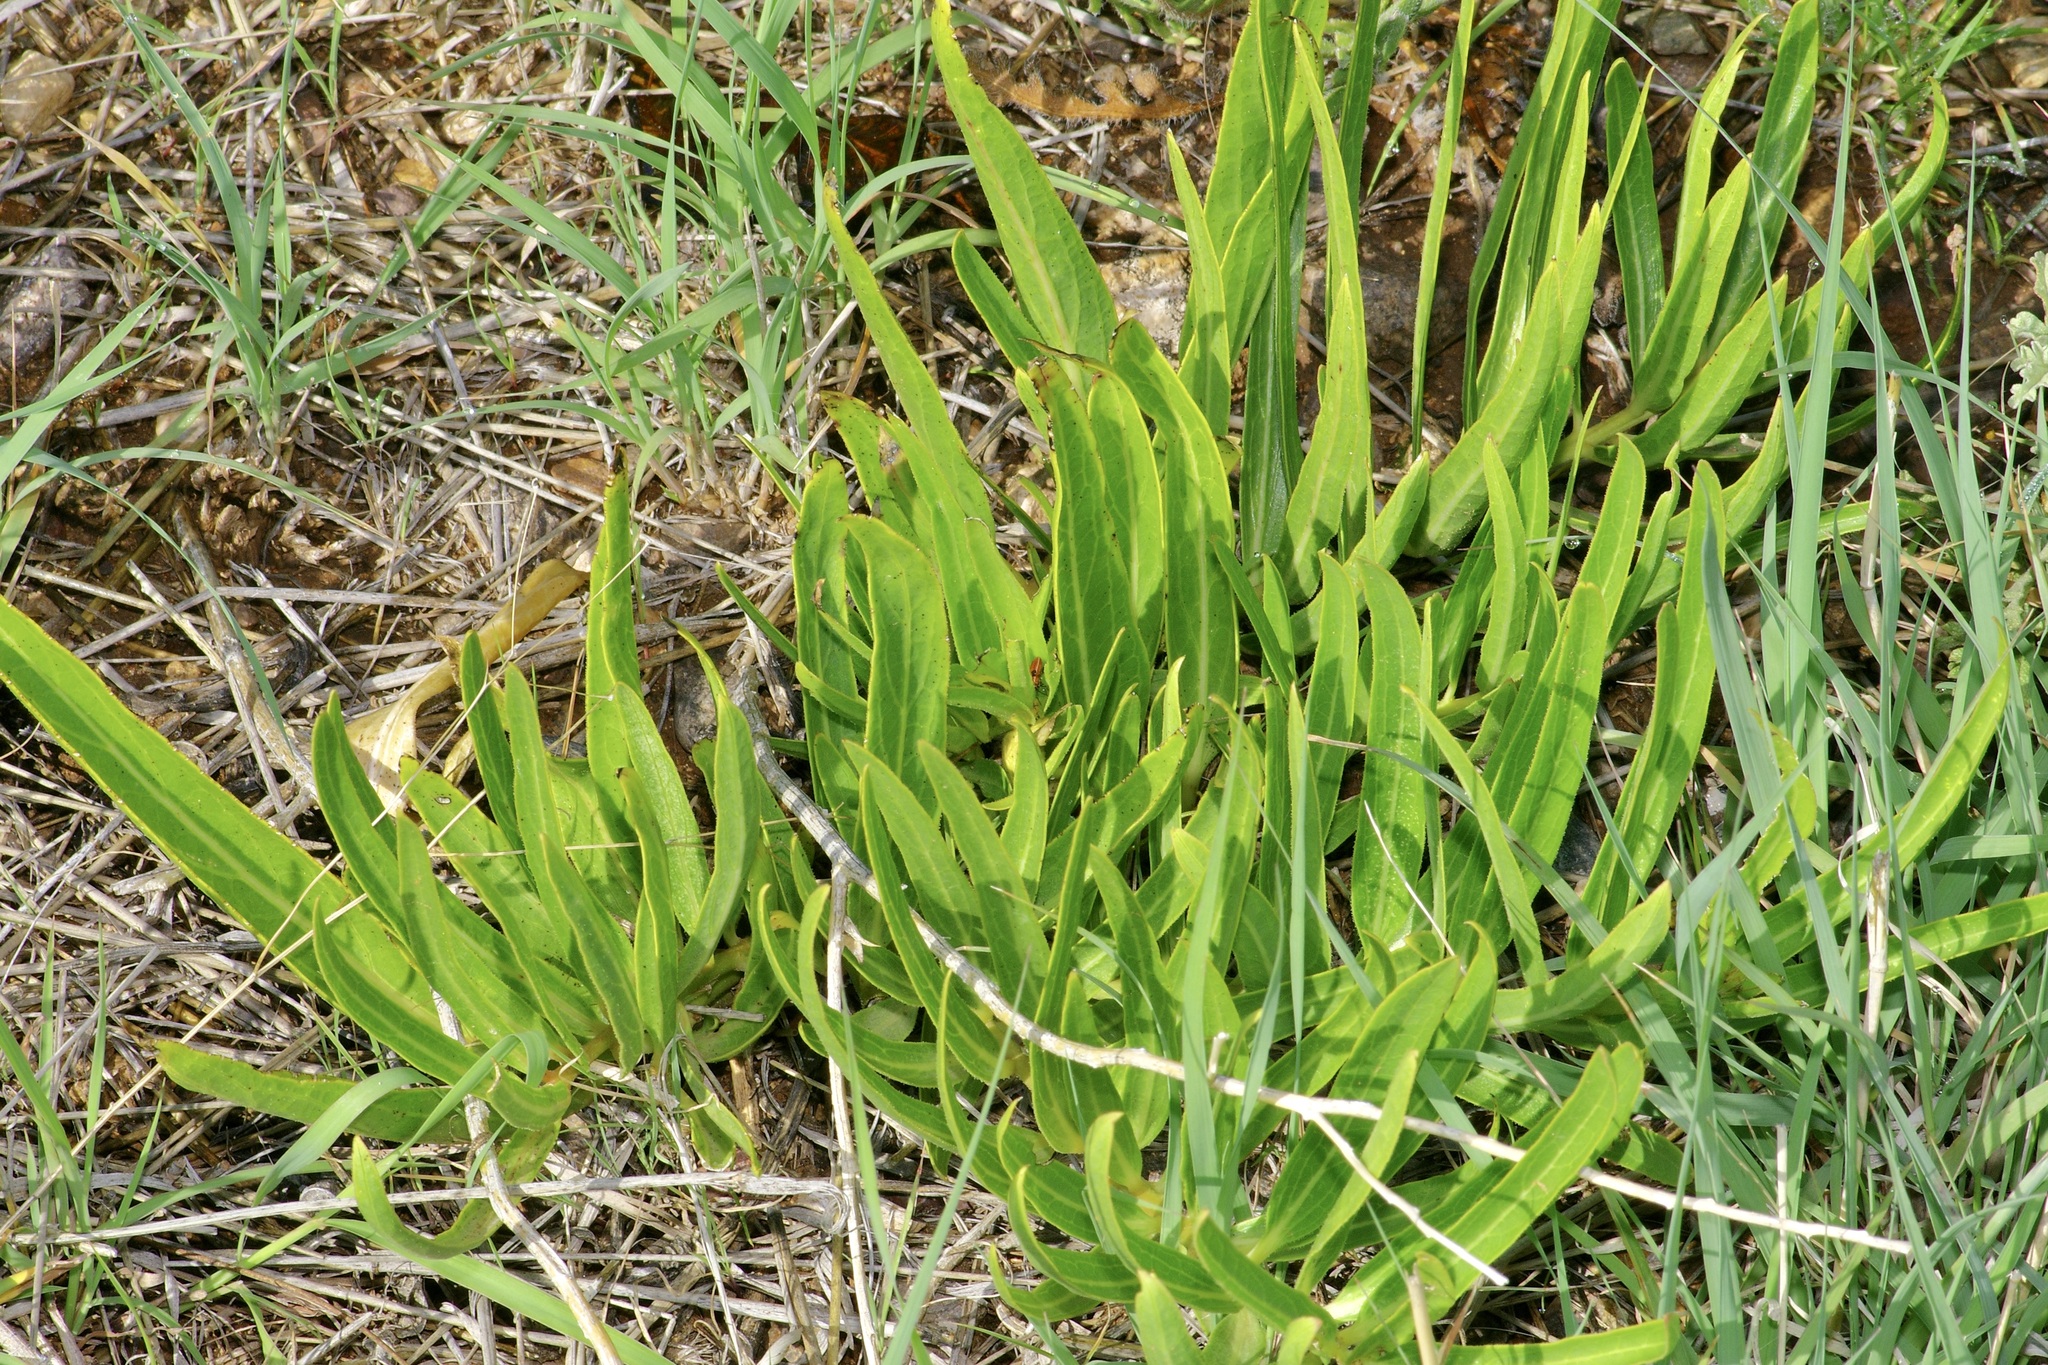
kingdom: Plantae
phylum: Tracheophyta
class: Magnoliopsida
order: Gentianales
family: Apocynaceae
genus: Asclepias
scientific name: Asclepias asperula
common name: Antelope horns
